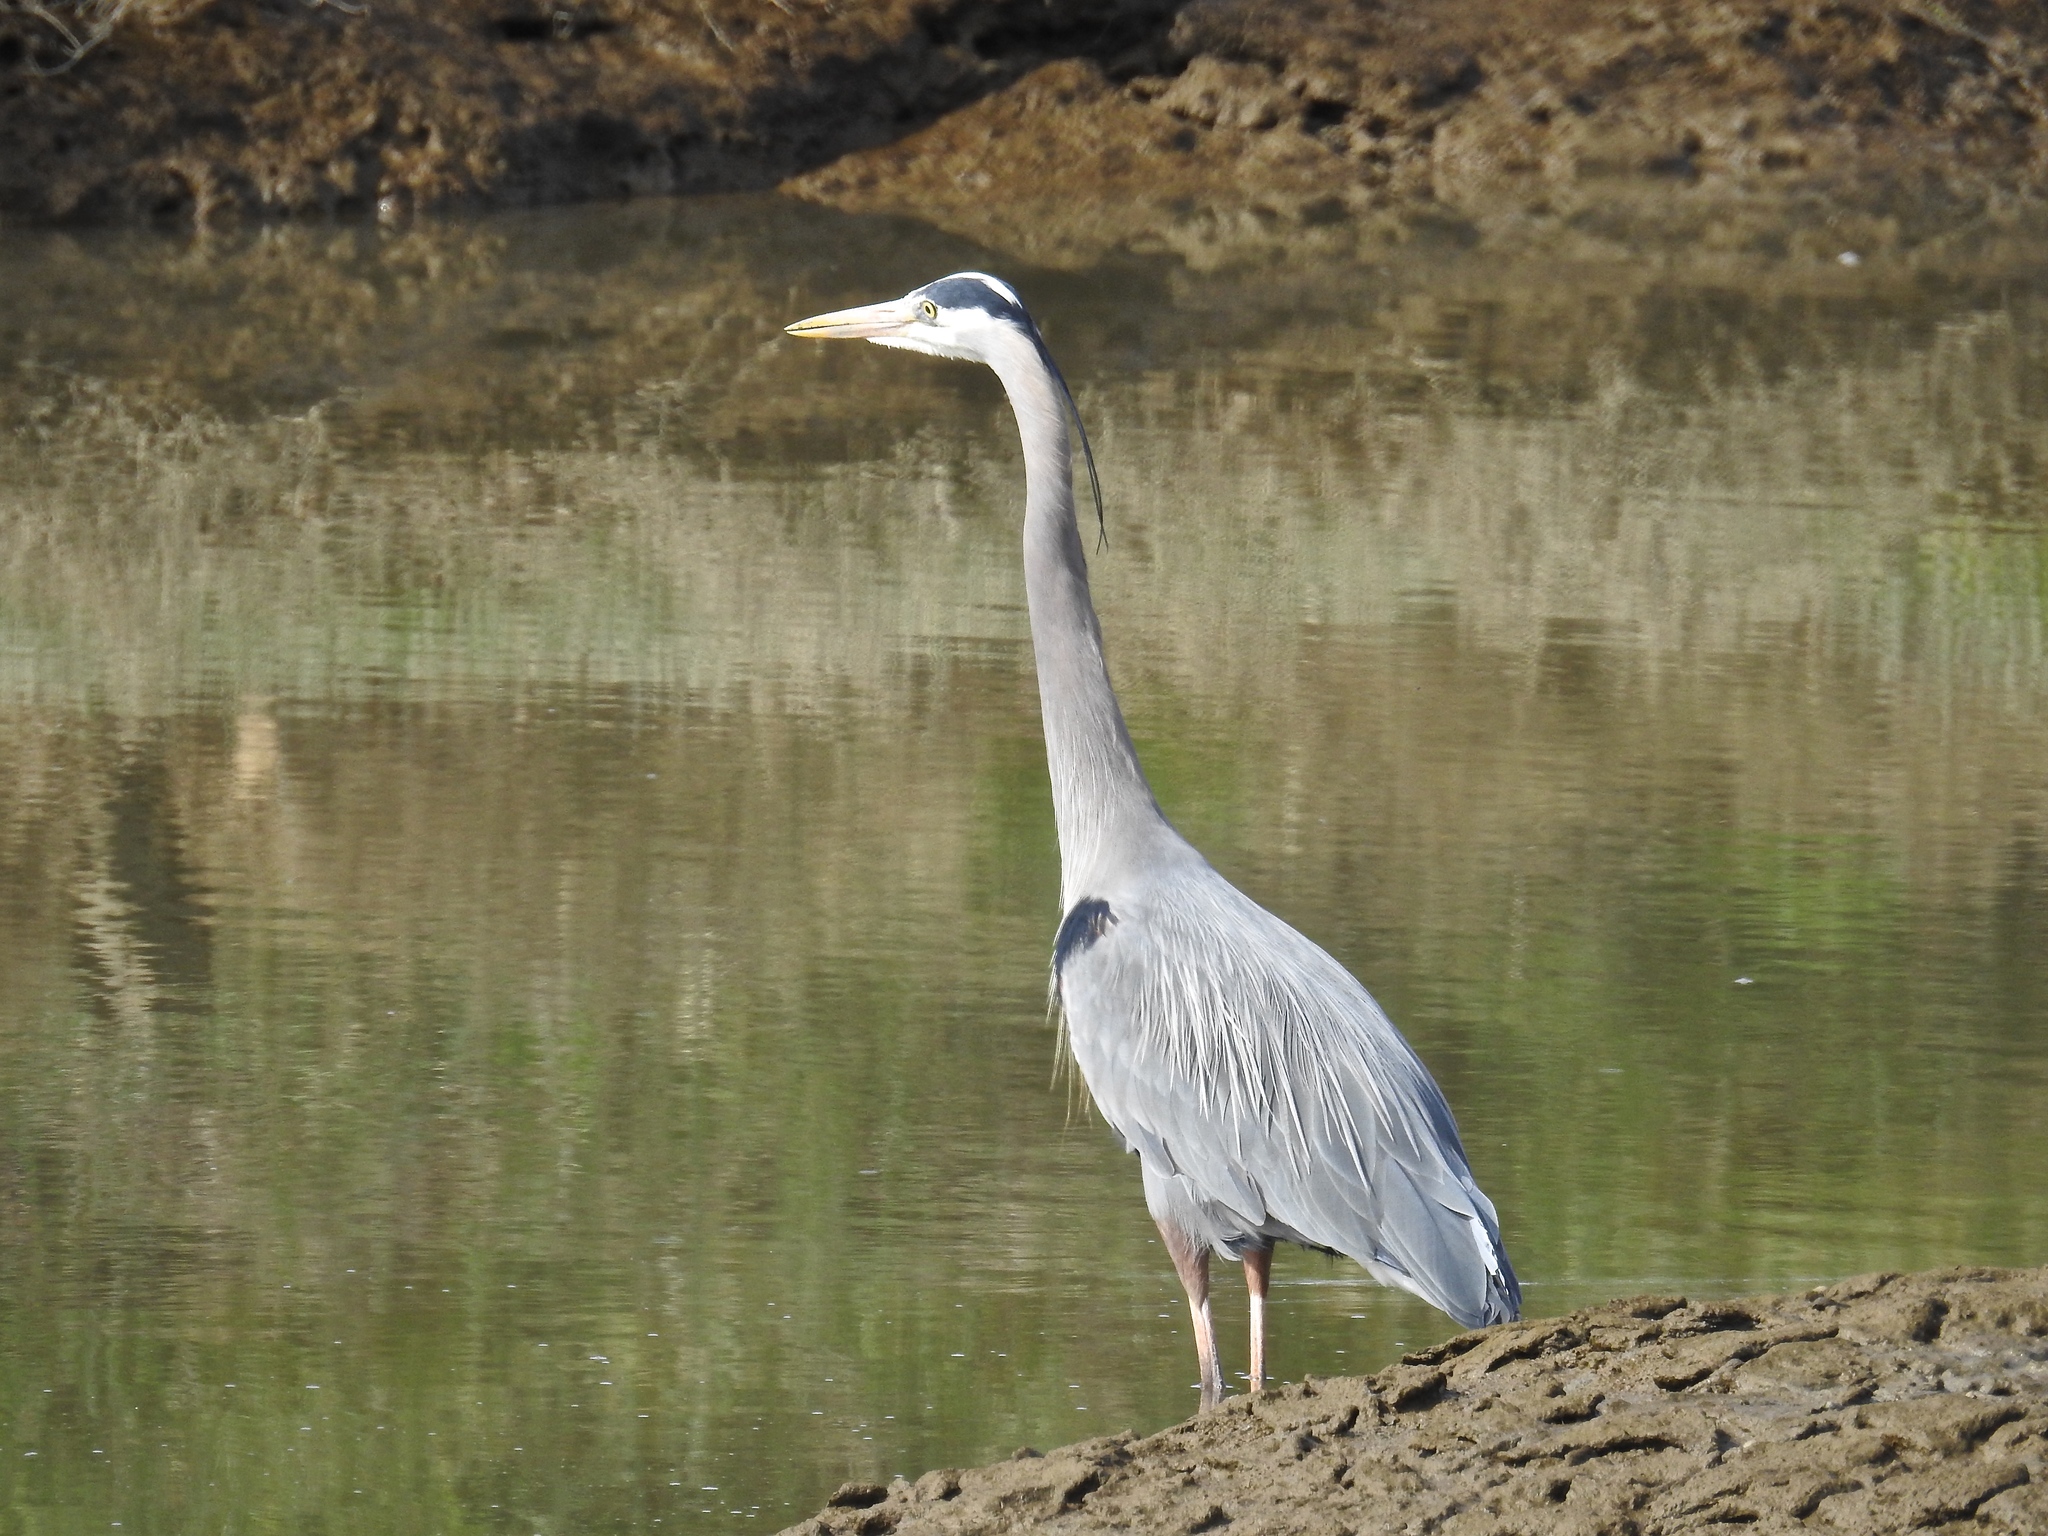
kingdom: Animalia
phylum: Chordata
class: Aves
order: Pelecaniformes
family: Ardeidae
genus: Ardea
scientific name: Ardea herodias
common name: Great blue heron
